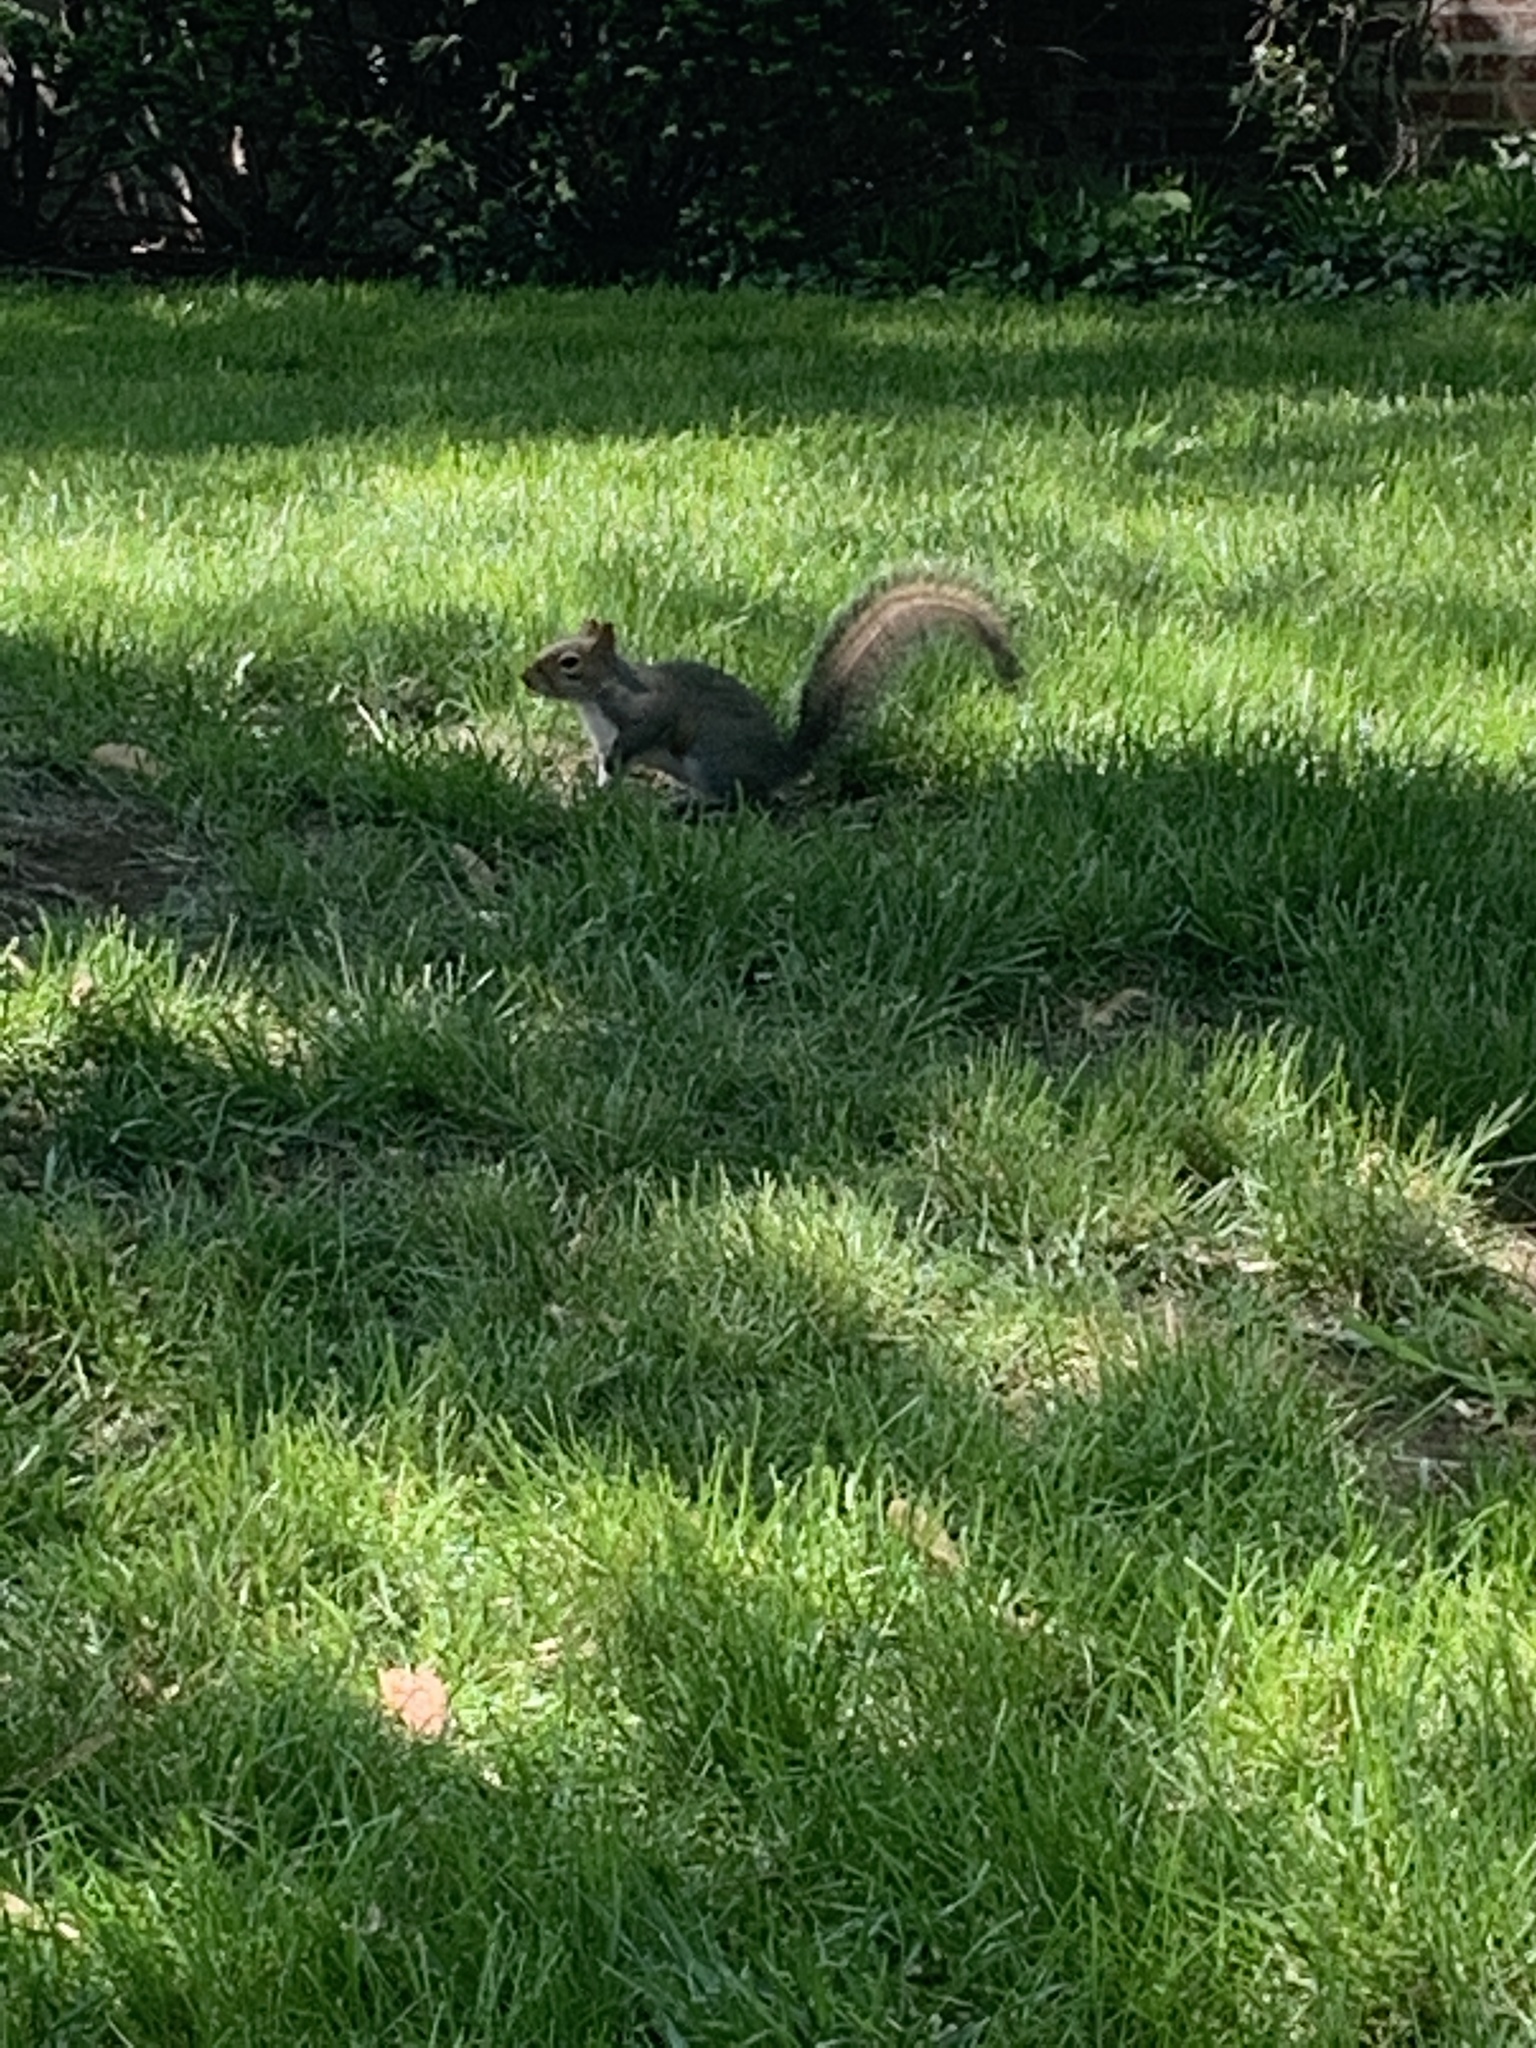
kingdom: Animalia
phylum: Chordata
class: Mammalia
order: Rodentia
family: Sciuridae
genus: Sciurus
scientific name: Sciurus carolinensis
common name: Eastern gray squirrel
